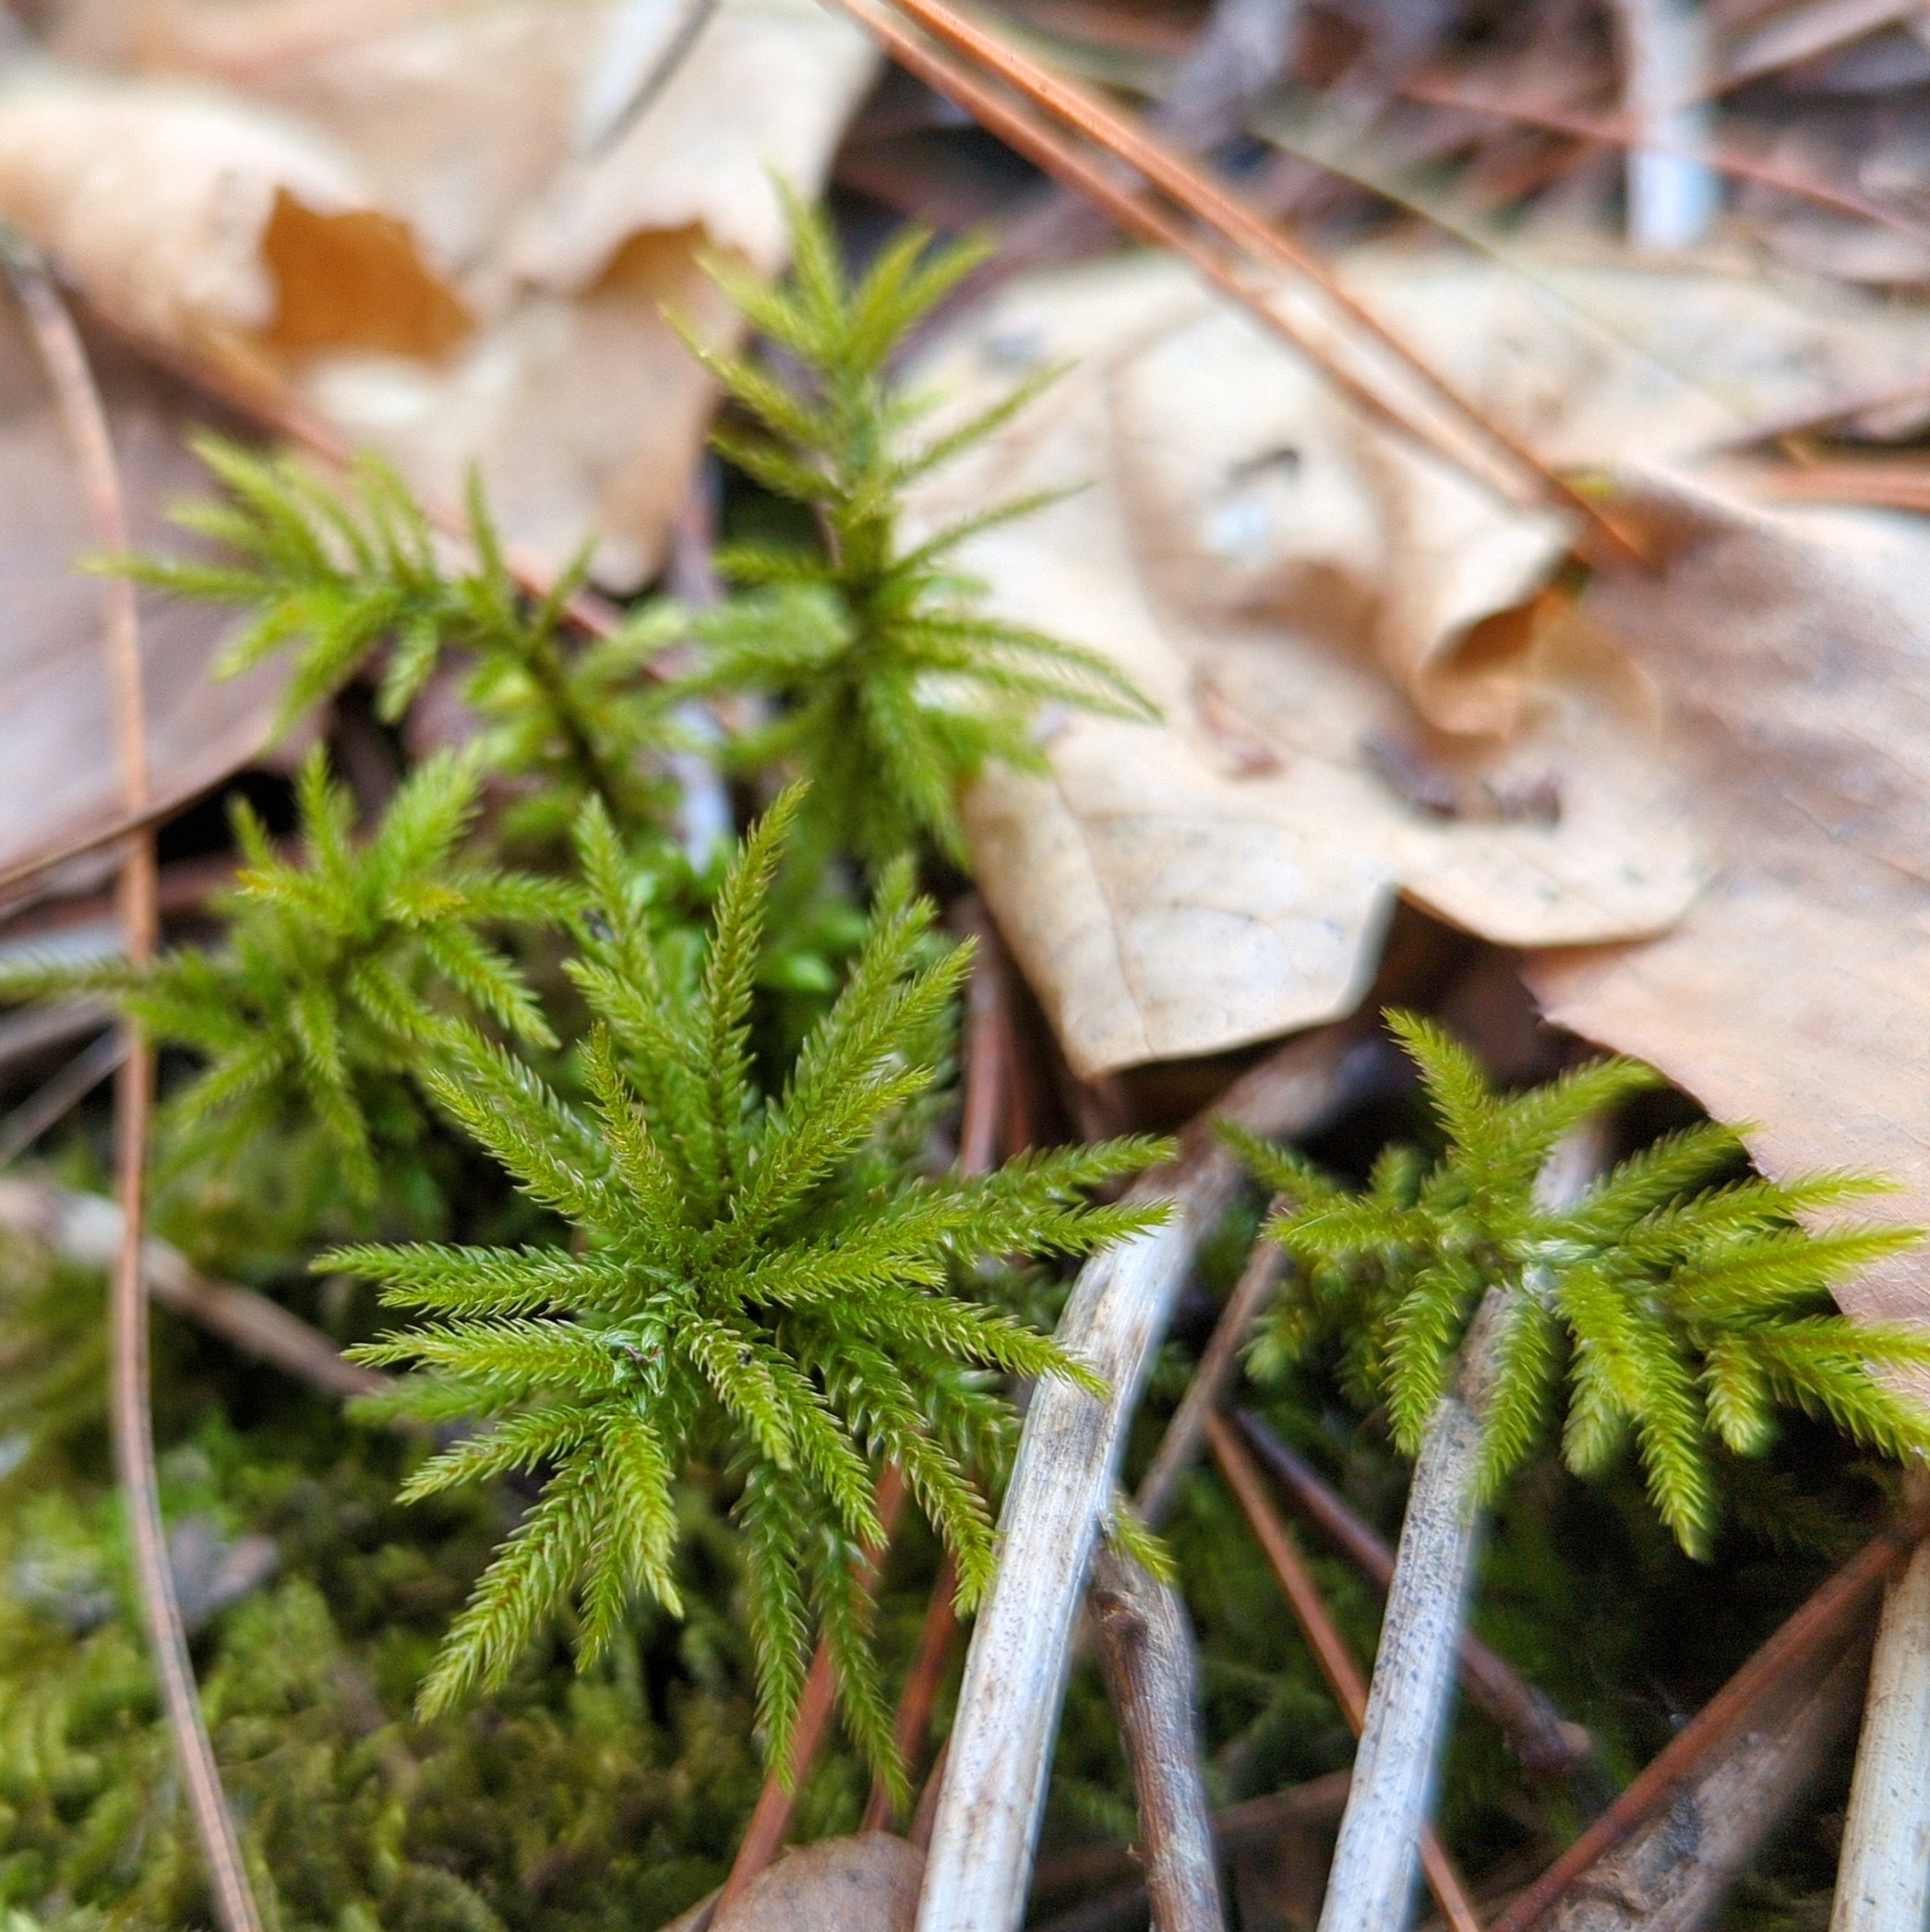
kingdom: Plantae
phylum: Bryophyta
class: Bryopsida
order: Hypnales
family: Climaciaceae
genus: Climacium
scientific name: Climacium
